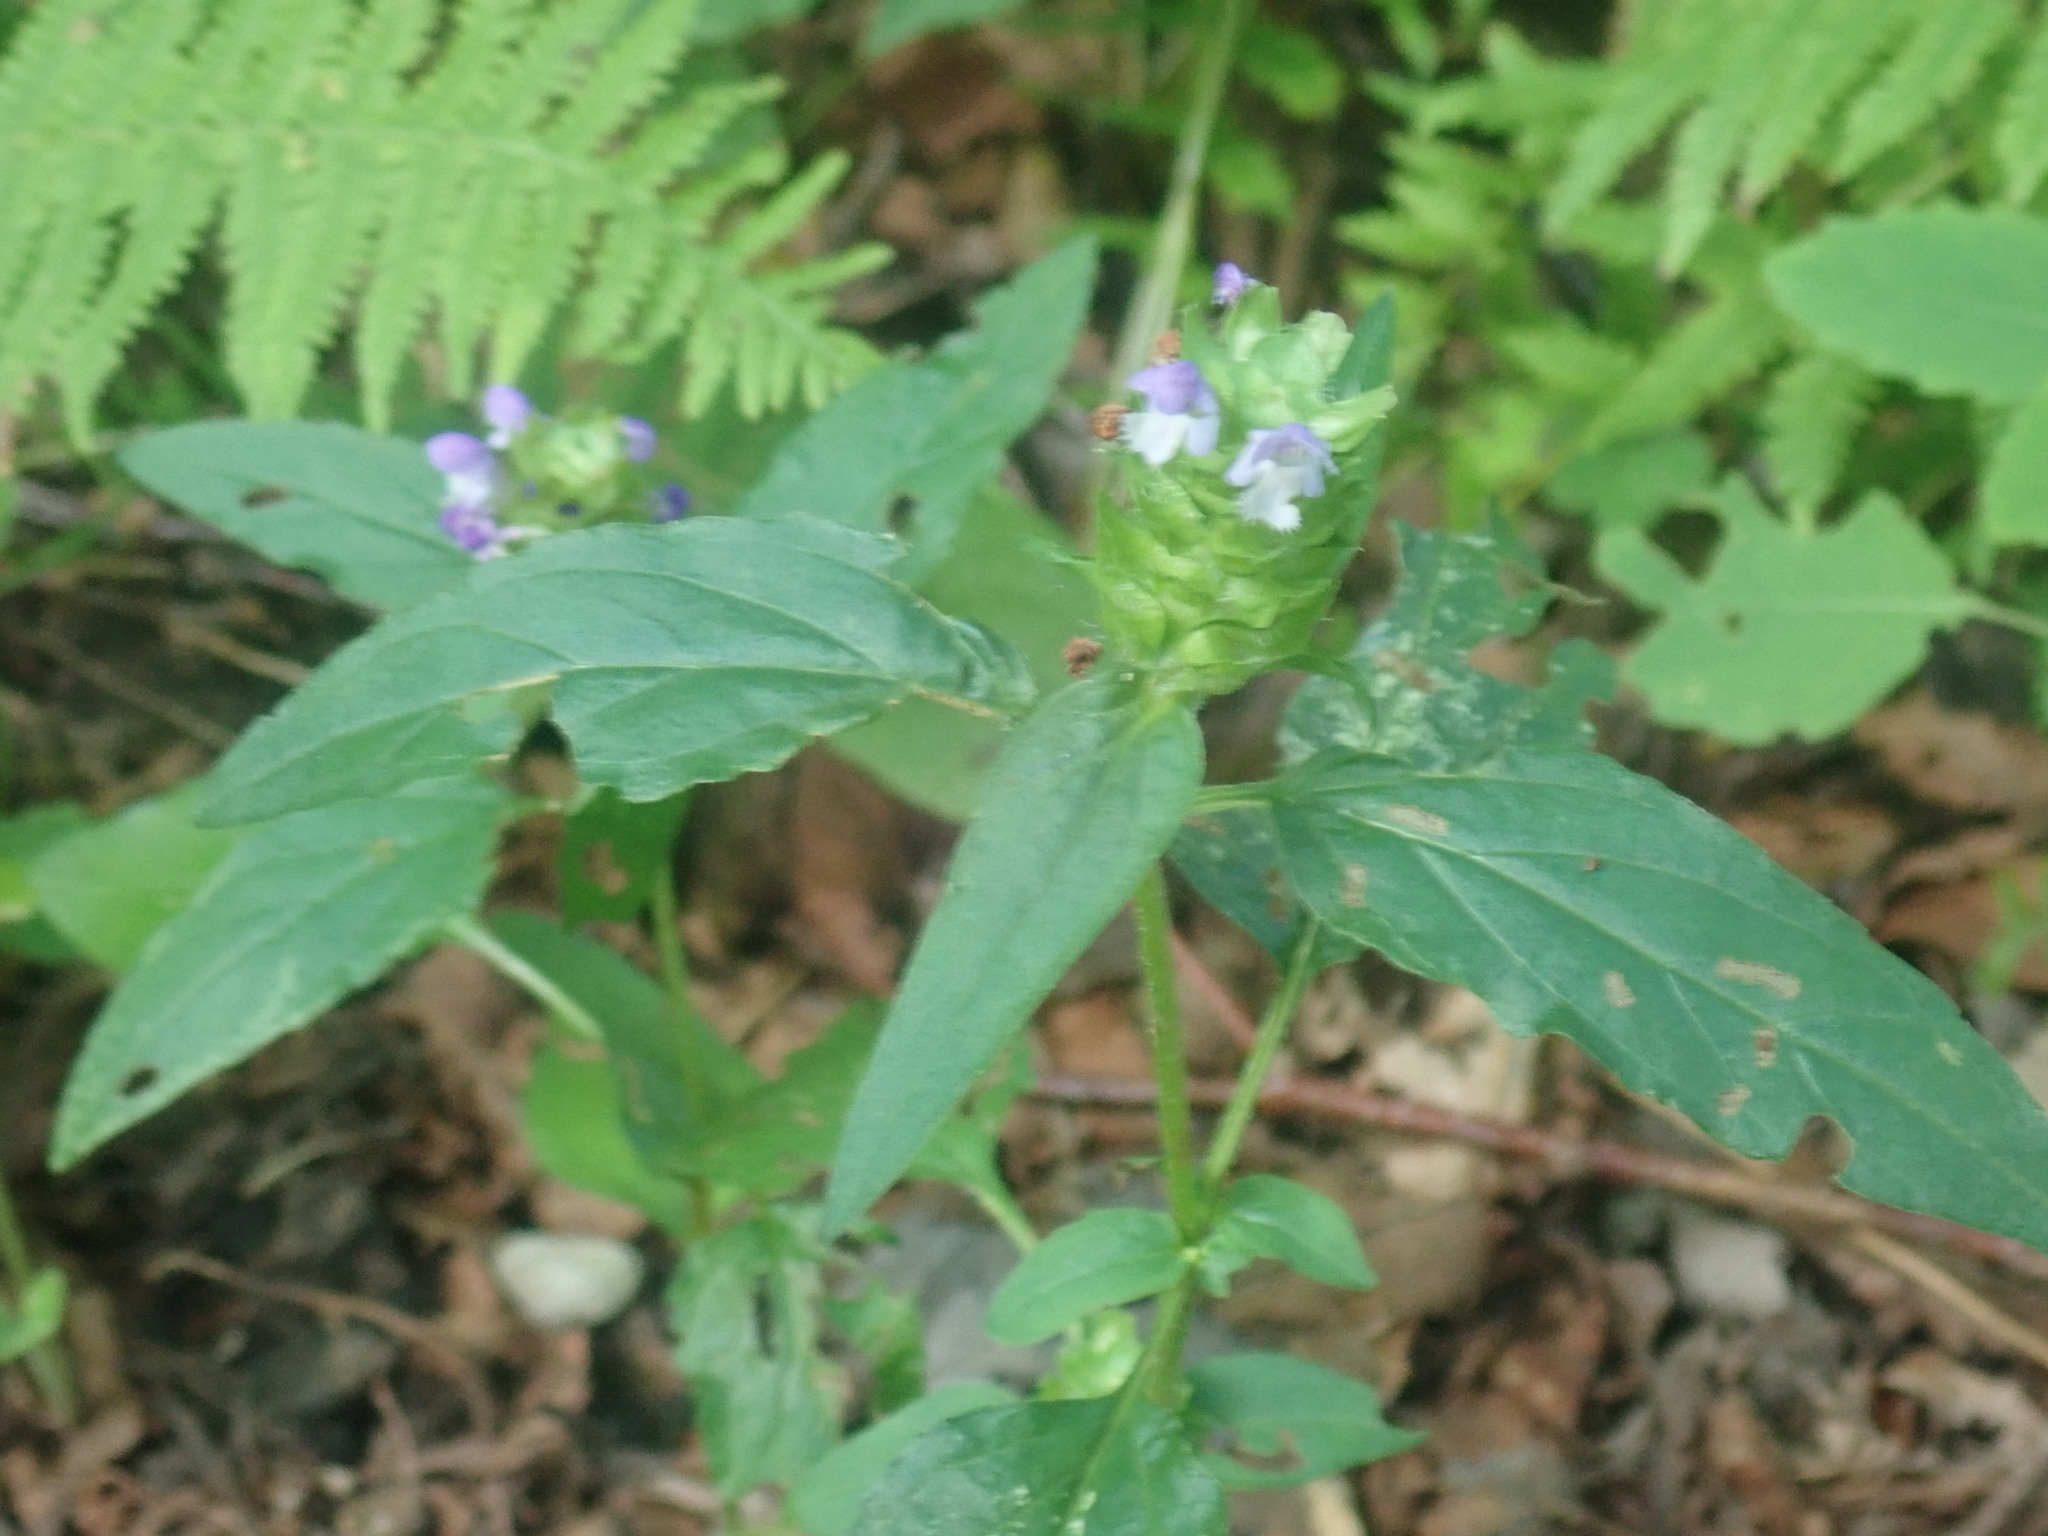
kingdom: Plantae
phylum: Tracheophyta
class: Magnoliopsida
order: Lamiales
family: Lamiaceae
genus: Prunella
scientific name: Prunella vulgaris
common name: Heal-all
